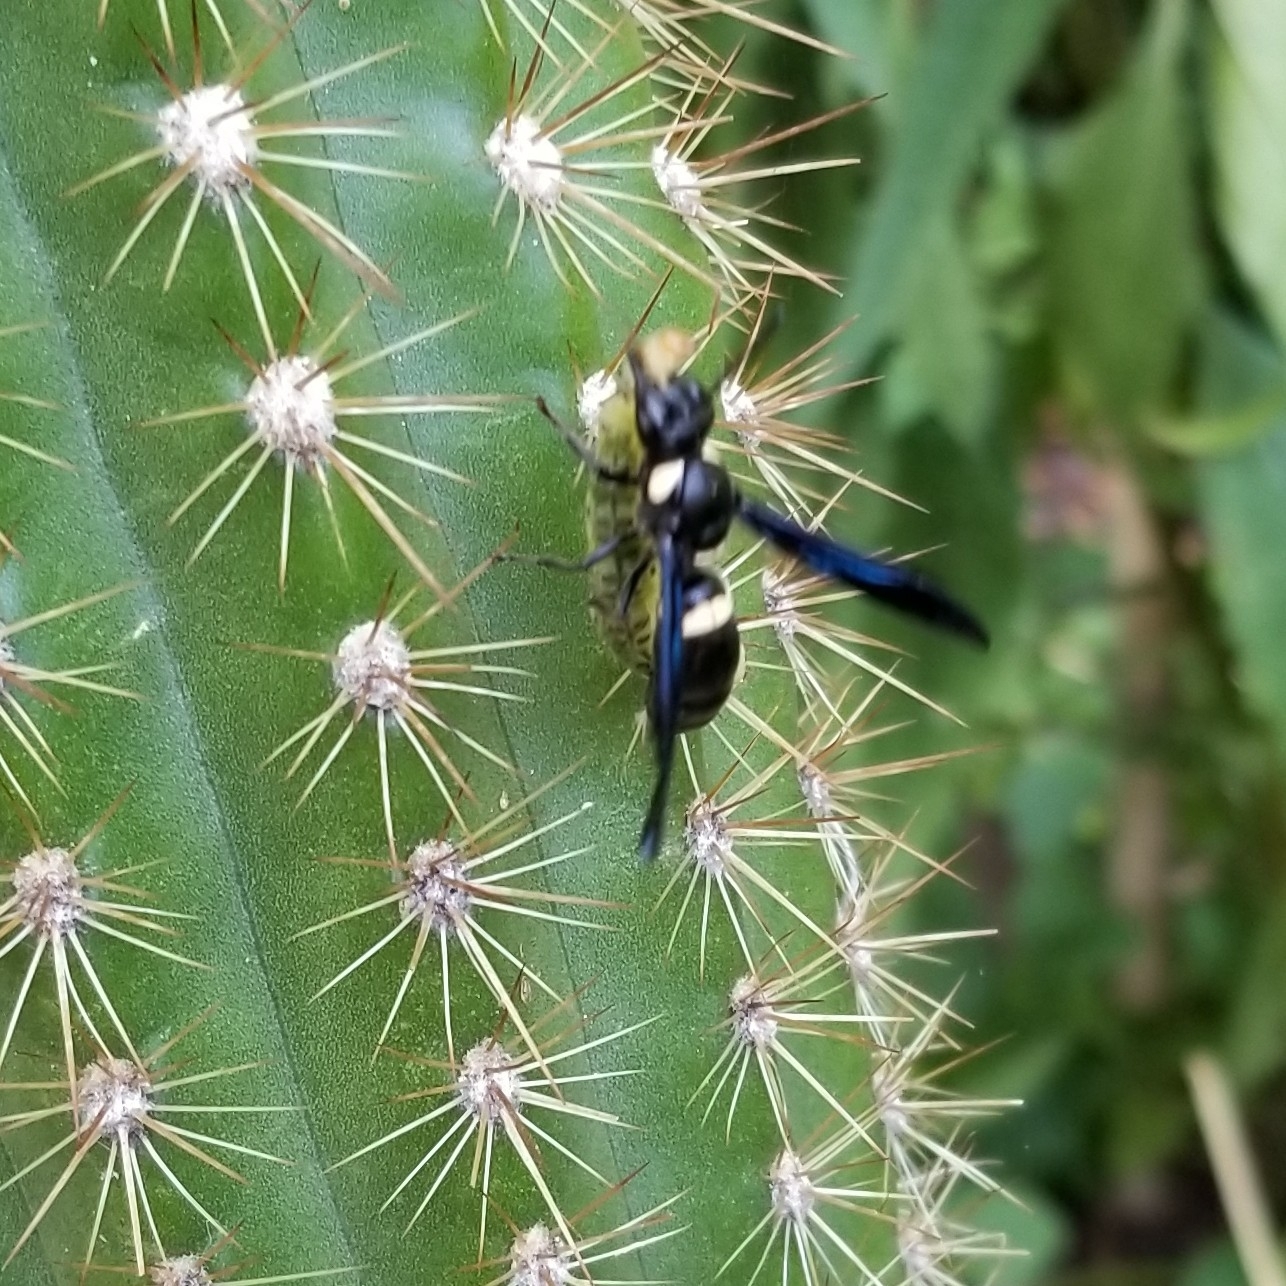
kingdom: Animalia
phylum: Arthropoda
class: Insecta
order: Hymenoptera
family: Eumenidae
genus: Monobia
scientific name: Monobia quadridens
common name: Four-toothed mason wasp
